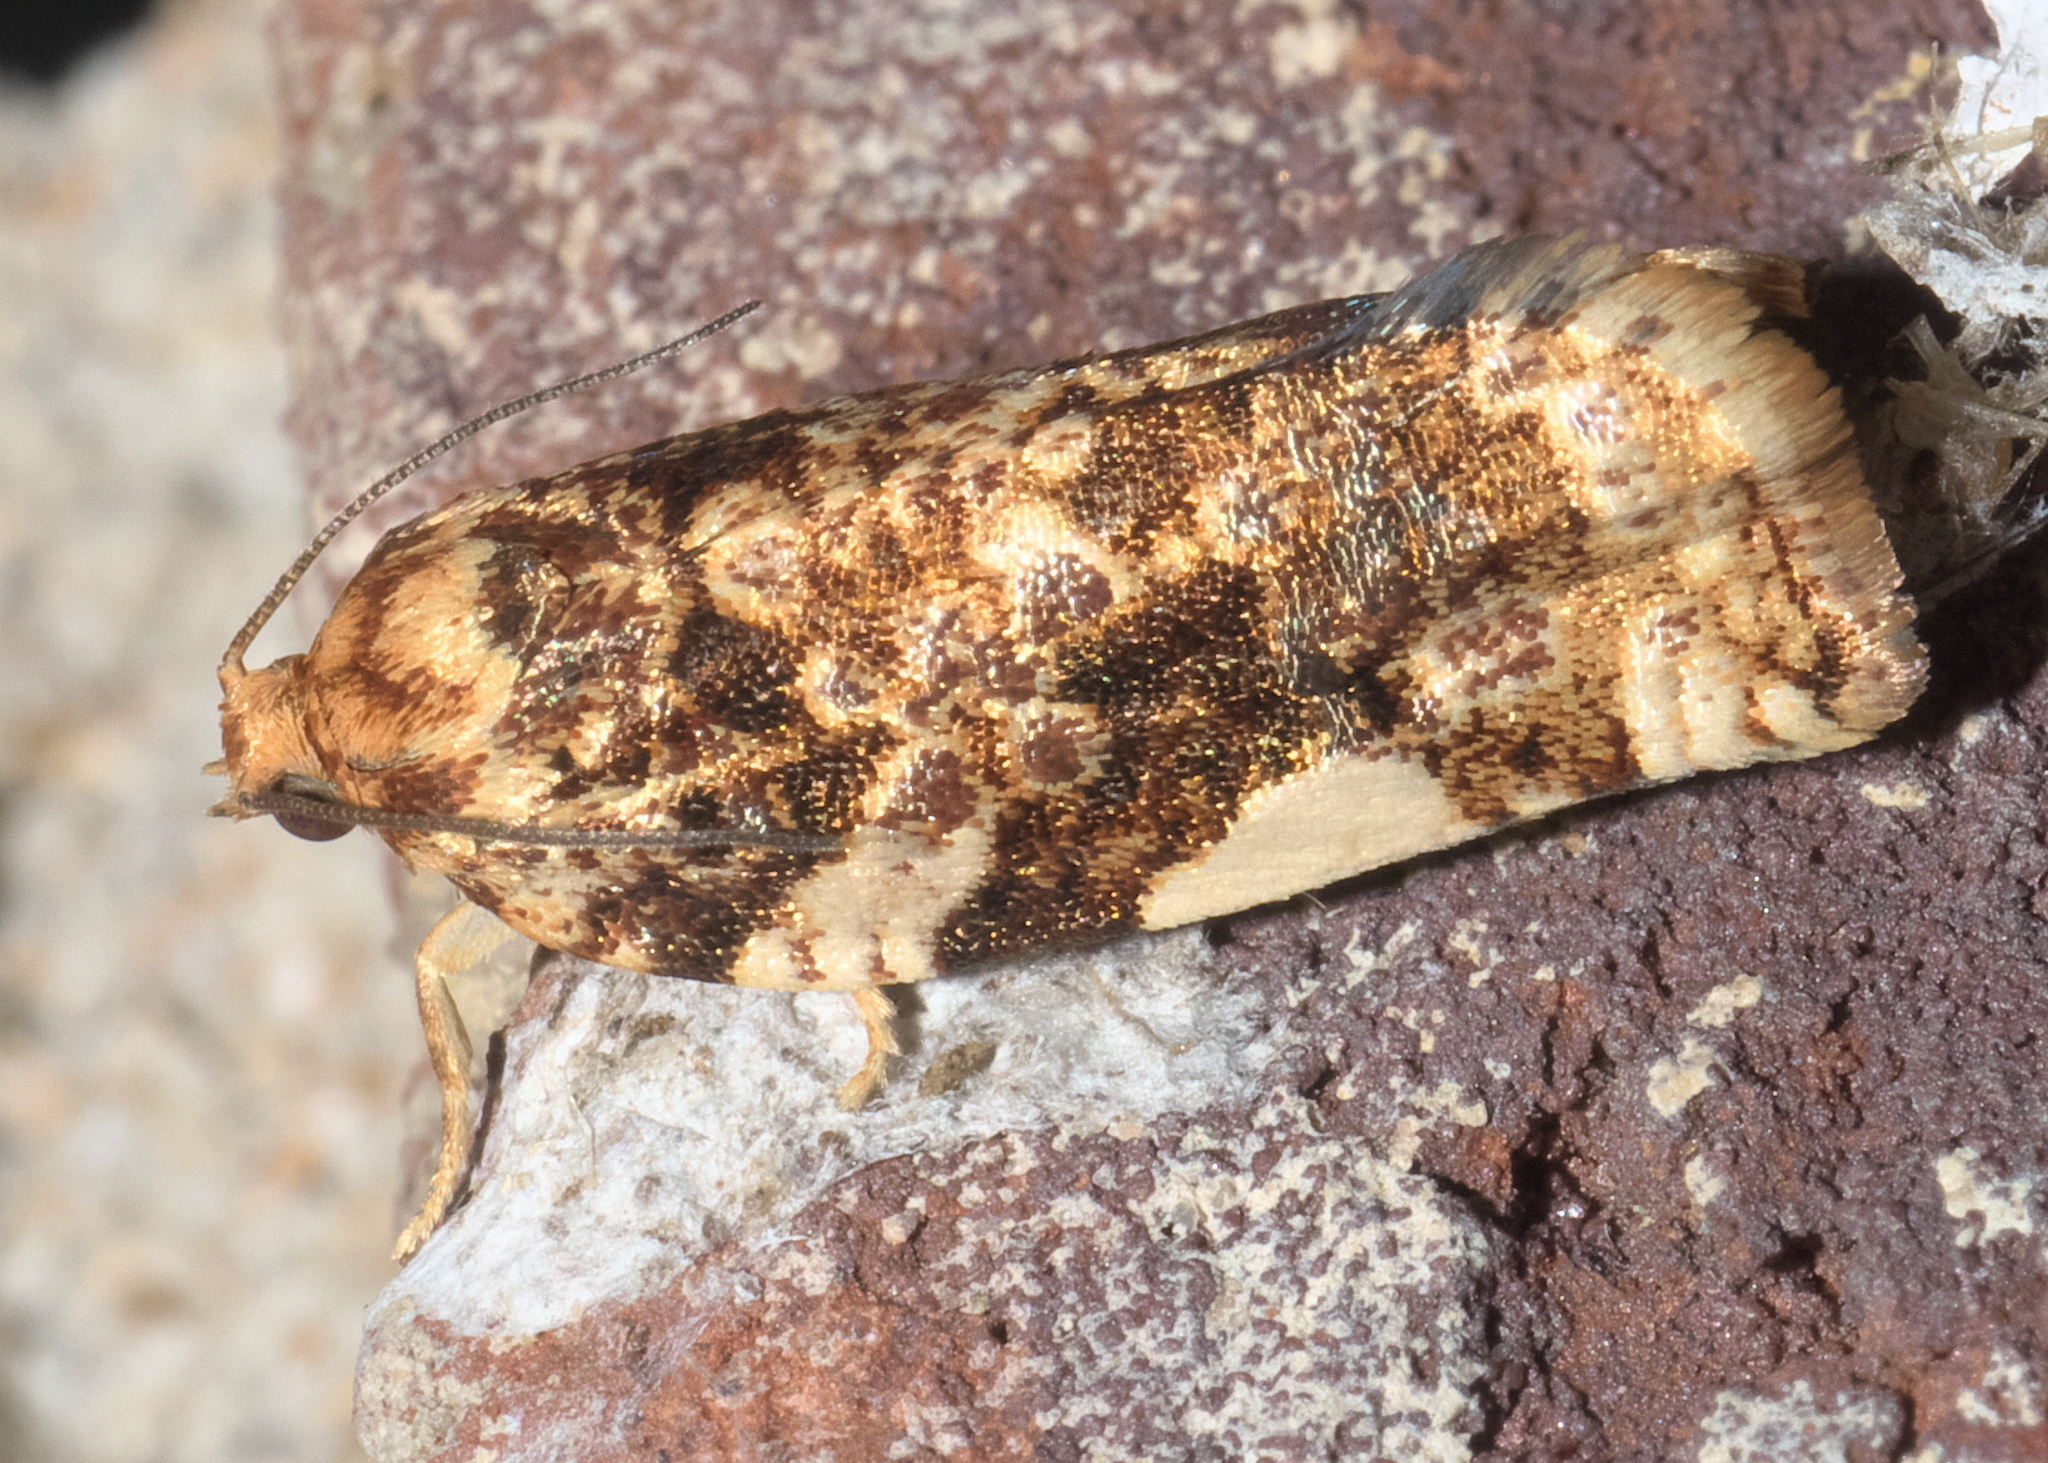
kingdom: Animalia
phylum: Arthropoda
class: Insecta
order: Lepidoptera
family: Tortricidae
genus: Archips
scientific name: Archips argyrospila
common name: Fruit-tree leafroller moth
